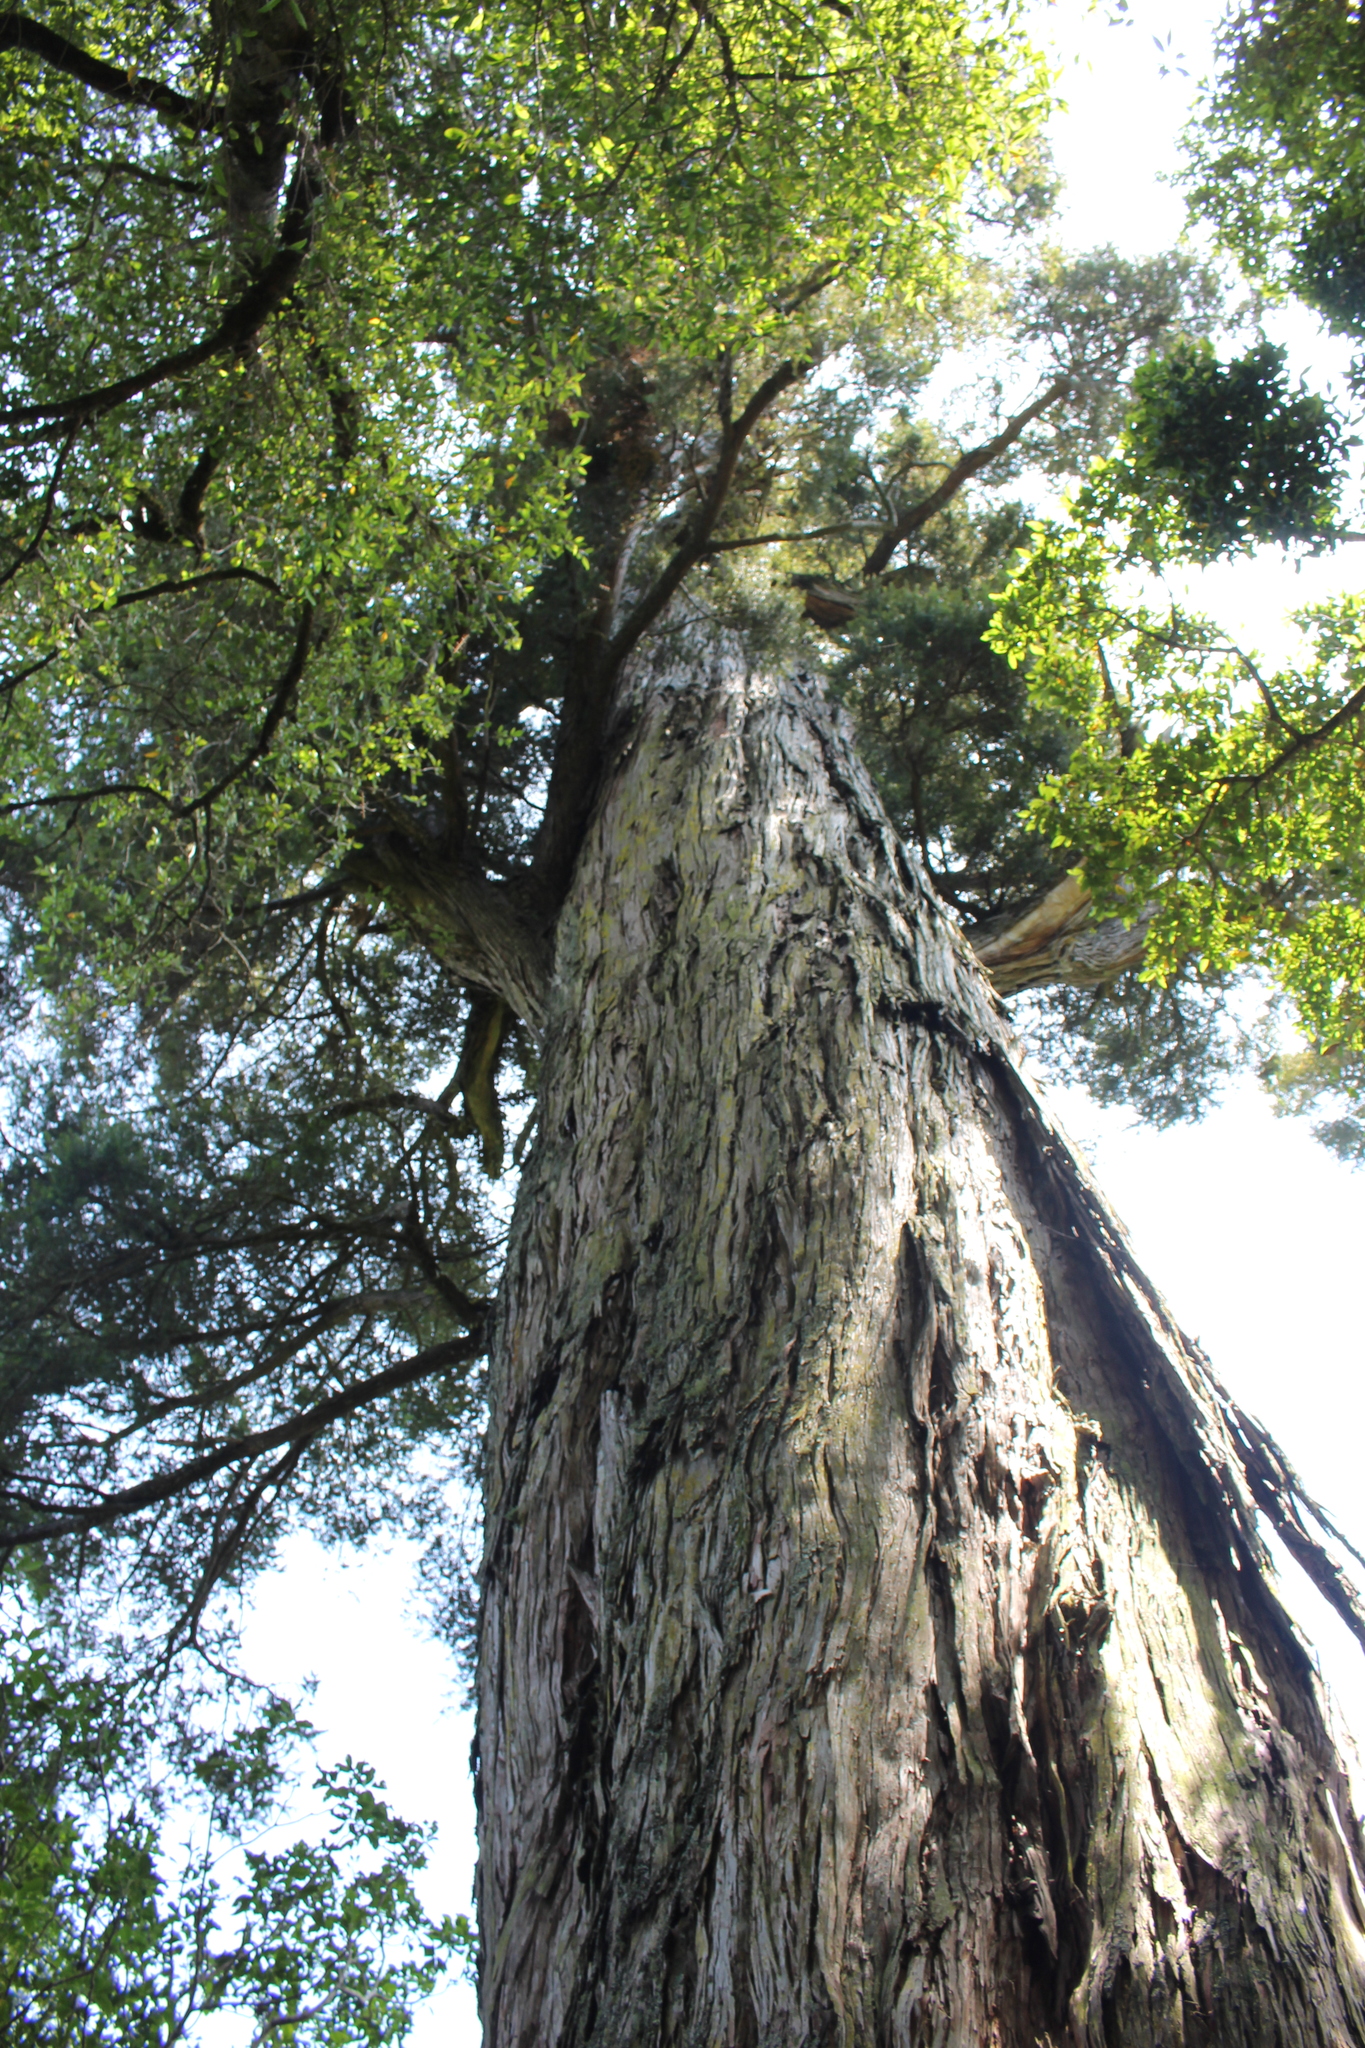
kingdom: Plantae
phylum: Tracheophyta
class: Pinopsida
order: Pinales
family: Podocarpaceae
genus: Podocarpus
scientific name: Podocarpus totara
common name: Totara
